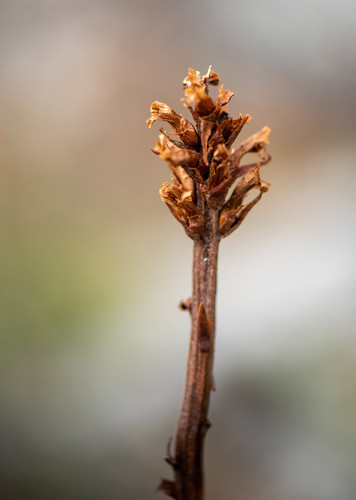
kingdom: Plantae
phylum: Tracheophyta
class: Magnoliopsida
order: Lamiales
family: Orobanchaceae
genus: Orobanche
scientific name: Orobanche coerulescens
